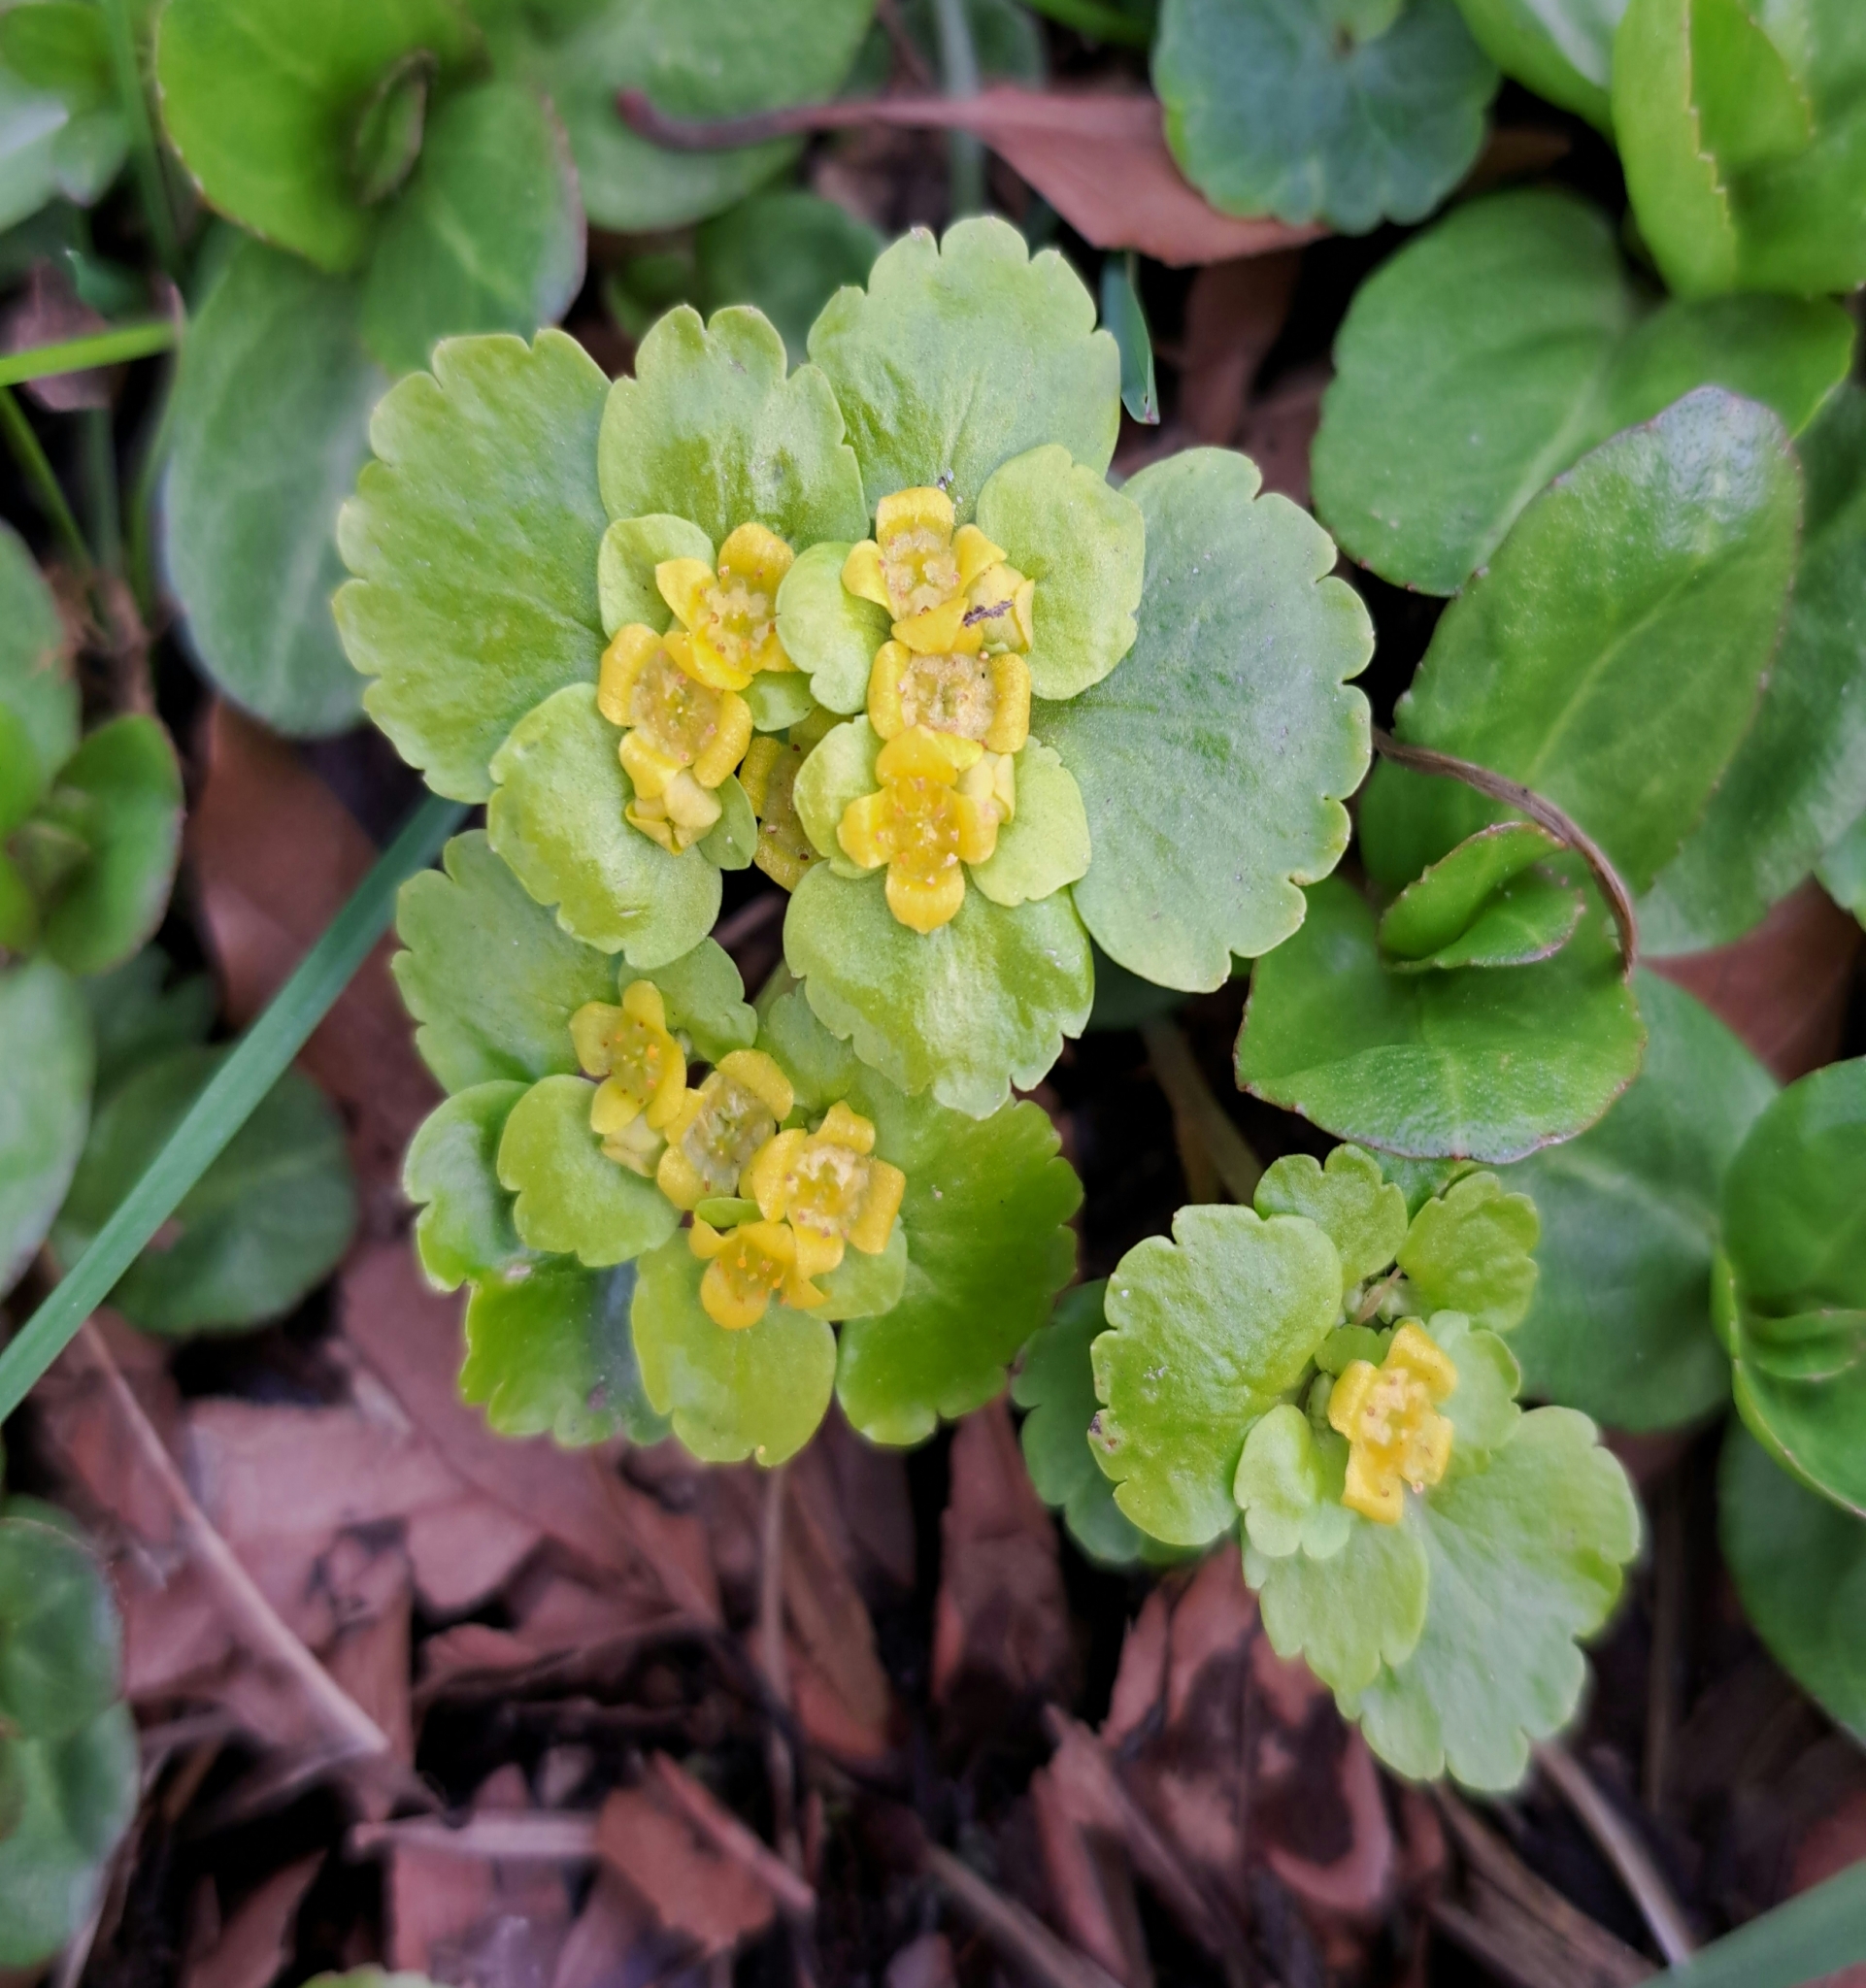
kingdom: Plantae
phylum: Tracheophyta
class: Magnoliopsida
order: Saxifragales
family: Saxifragaceae
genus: Chrysosplenium
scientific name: Chrysosplenium alternifolium
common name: Alternate-leaved golden-saxifrage
